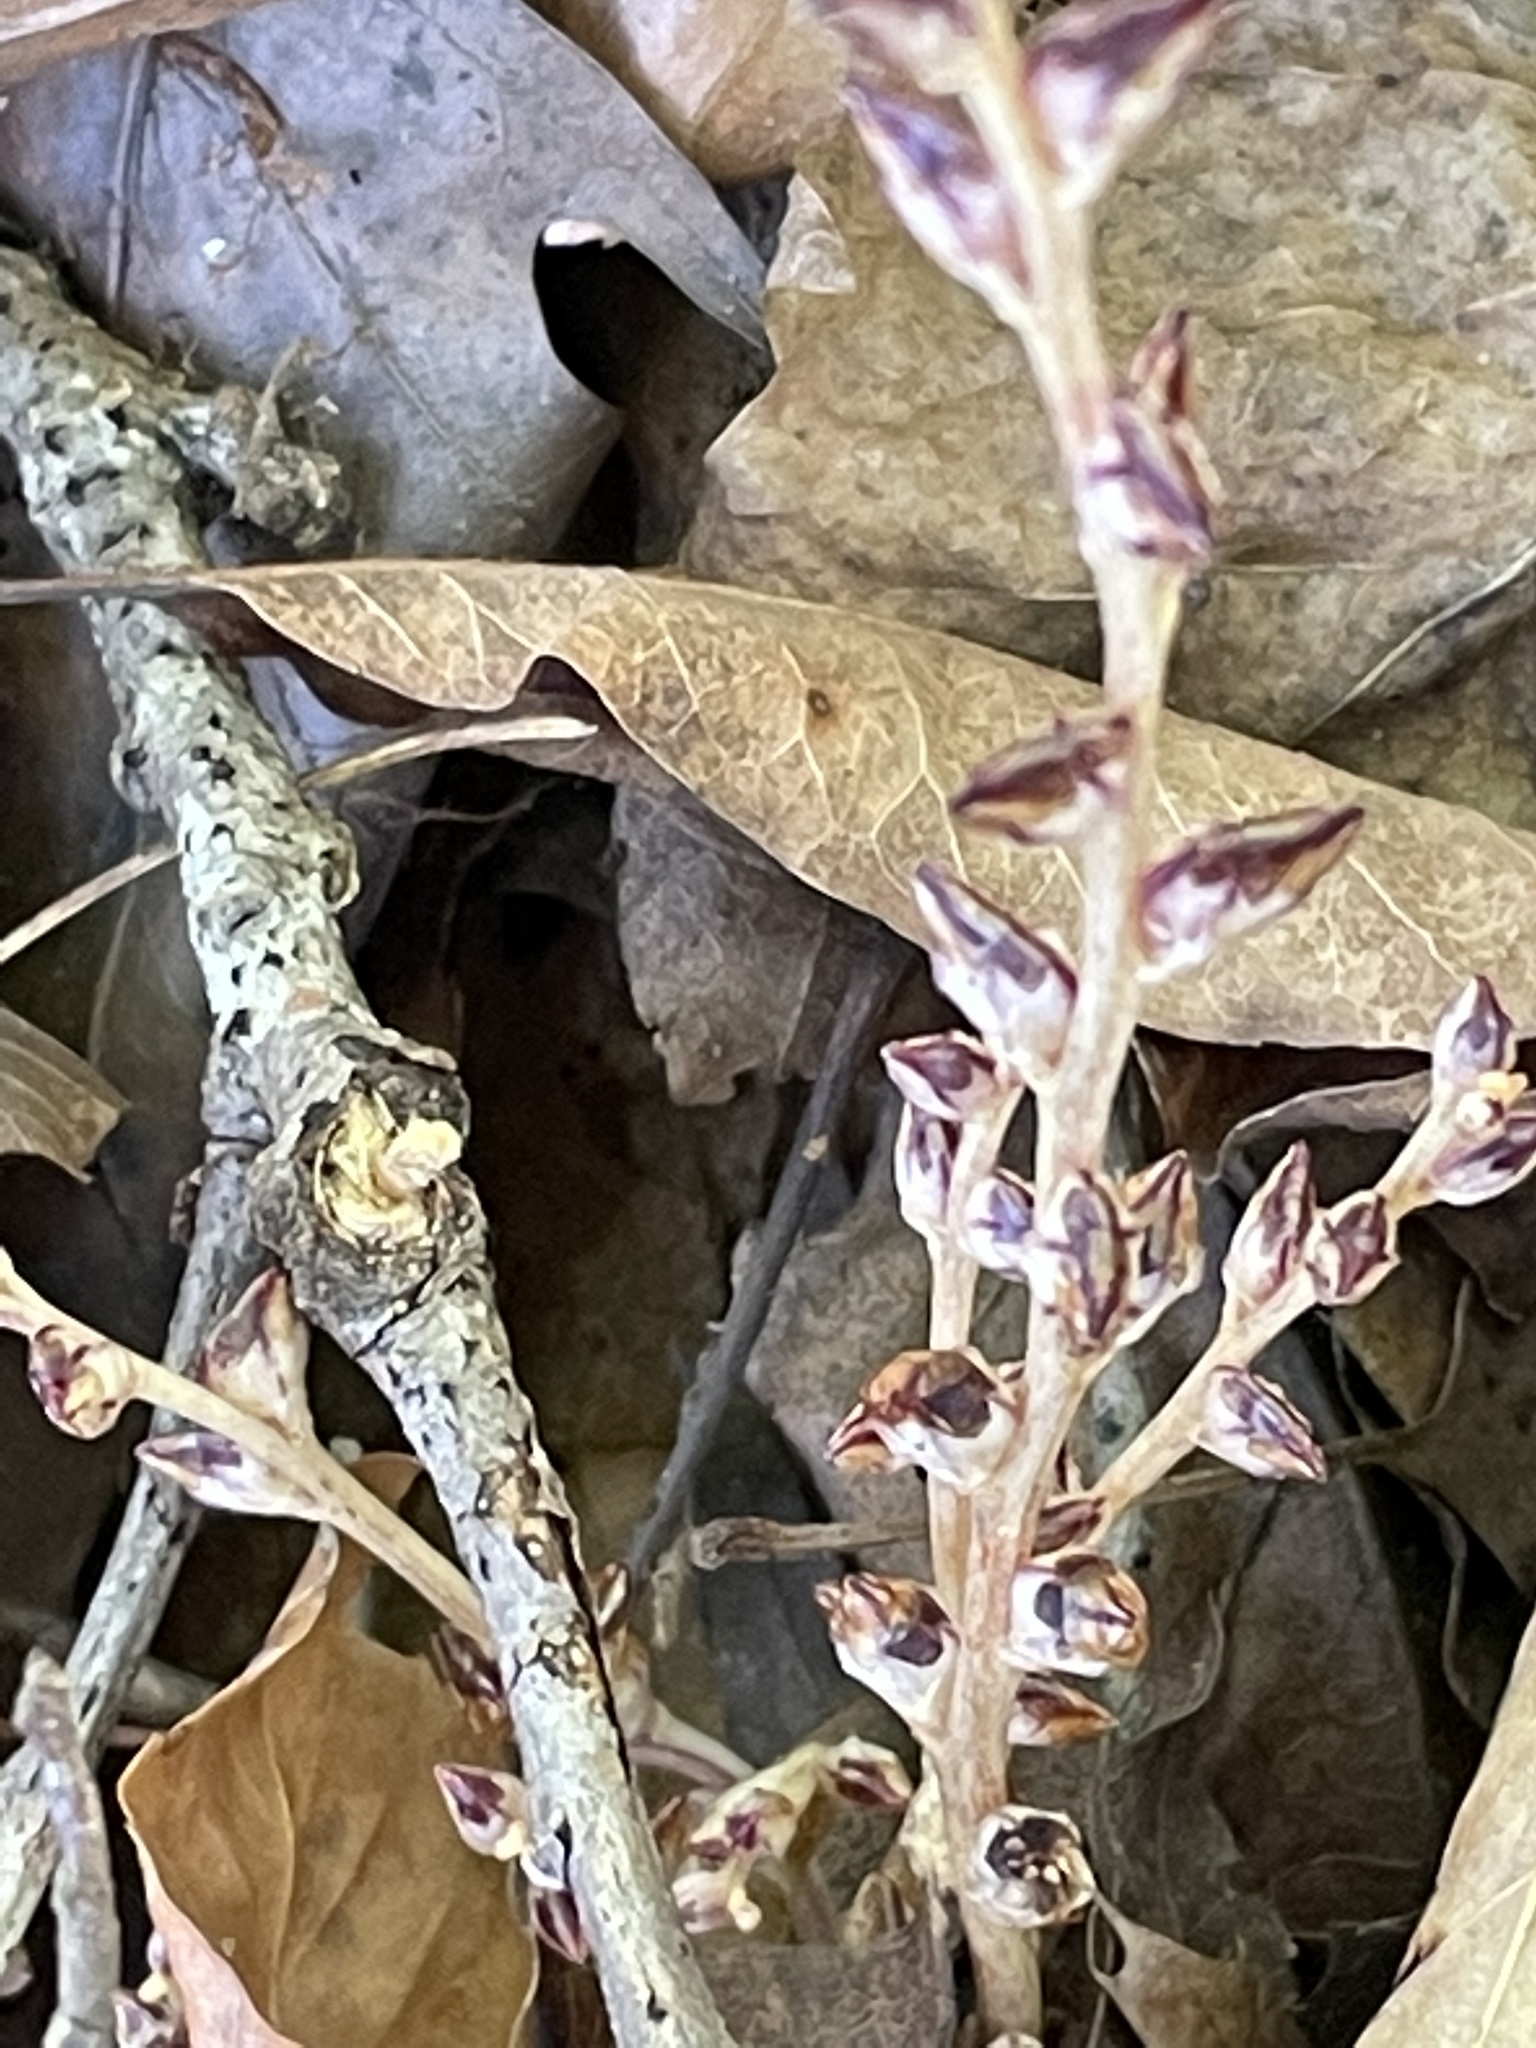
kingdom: Plantae
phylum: Tracheophyta
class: Magnoliopsida
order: Lamiales
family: Orobanchaceae
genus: Epifagus
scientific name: Epifagus virginiana
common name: Beechdrops
